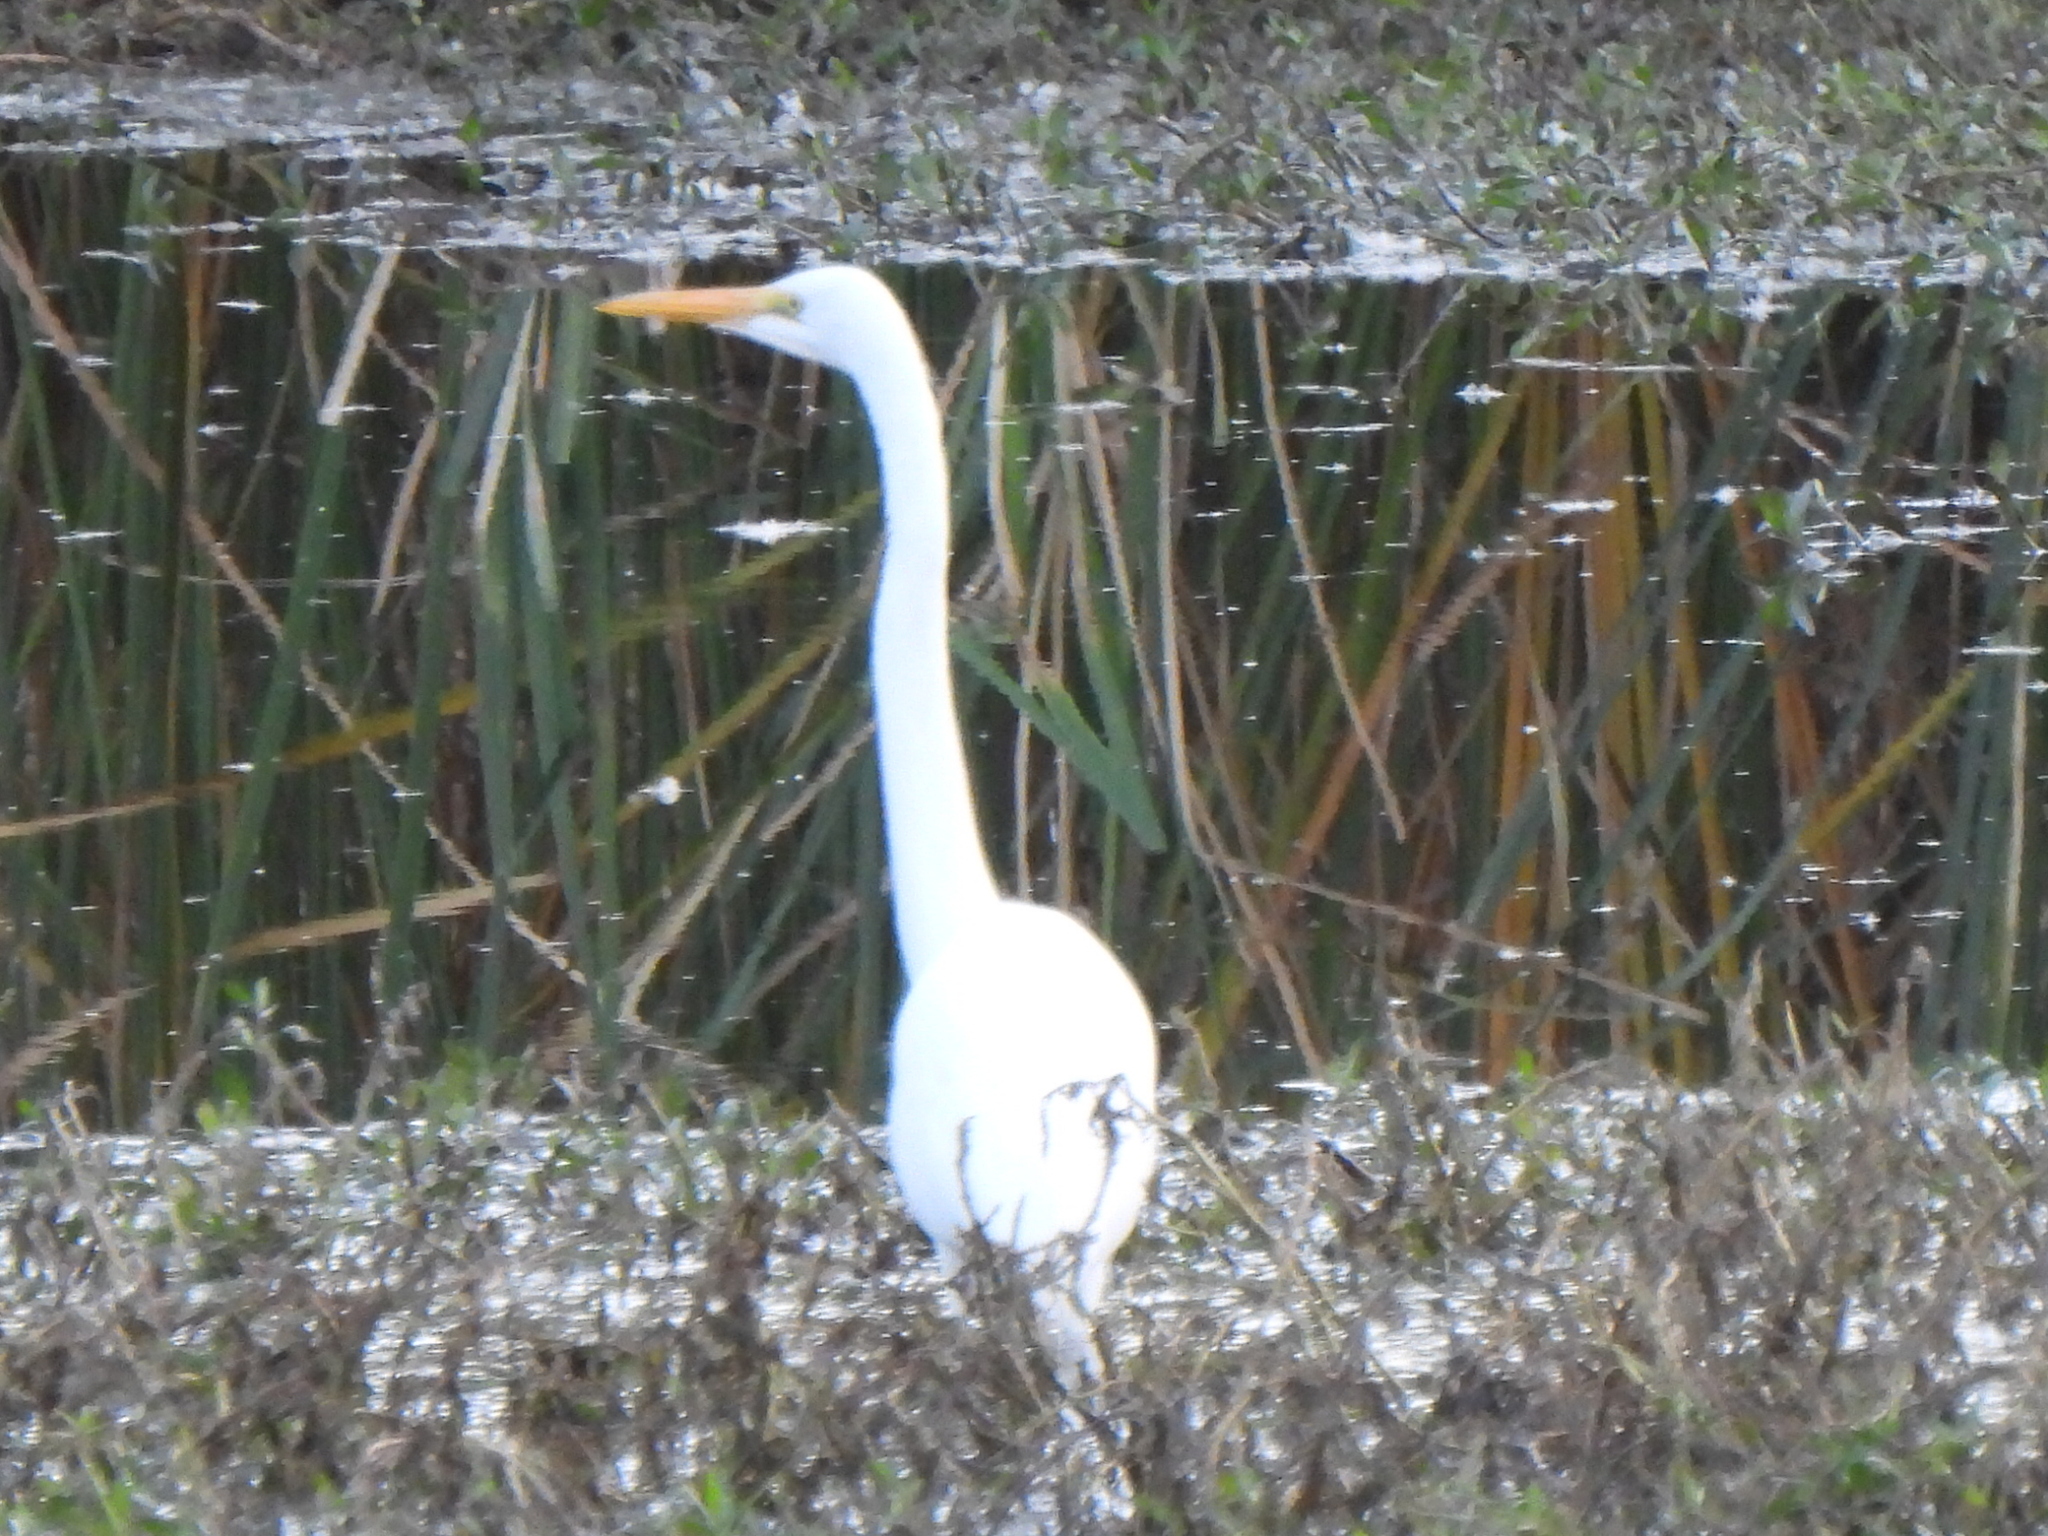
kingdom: Animalia
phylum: Chordata
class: Aves
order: Pelecaniformes
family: Ardeidae
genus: Ardea
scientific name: Ardea alba
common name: Great egret
